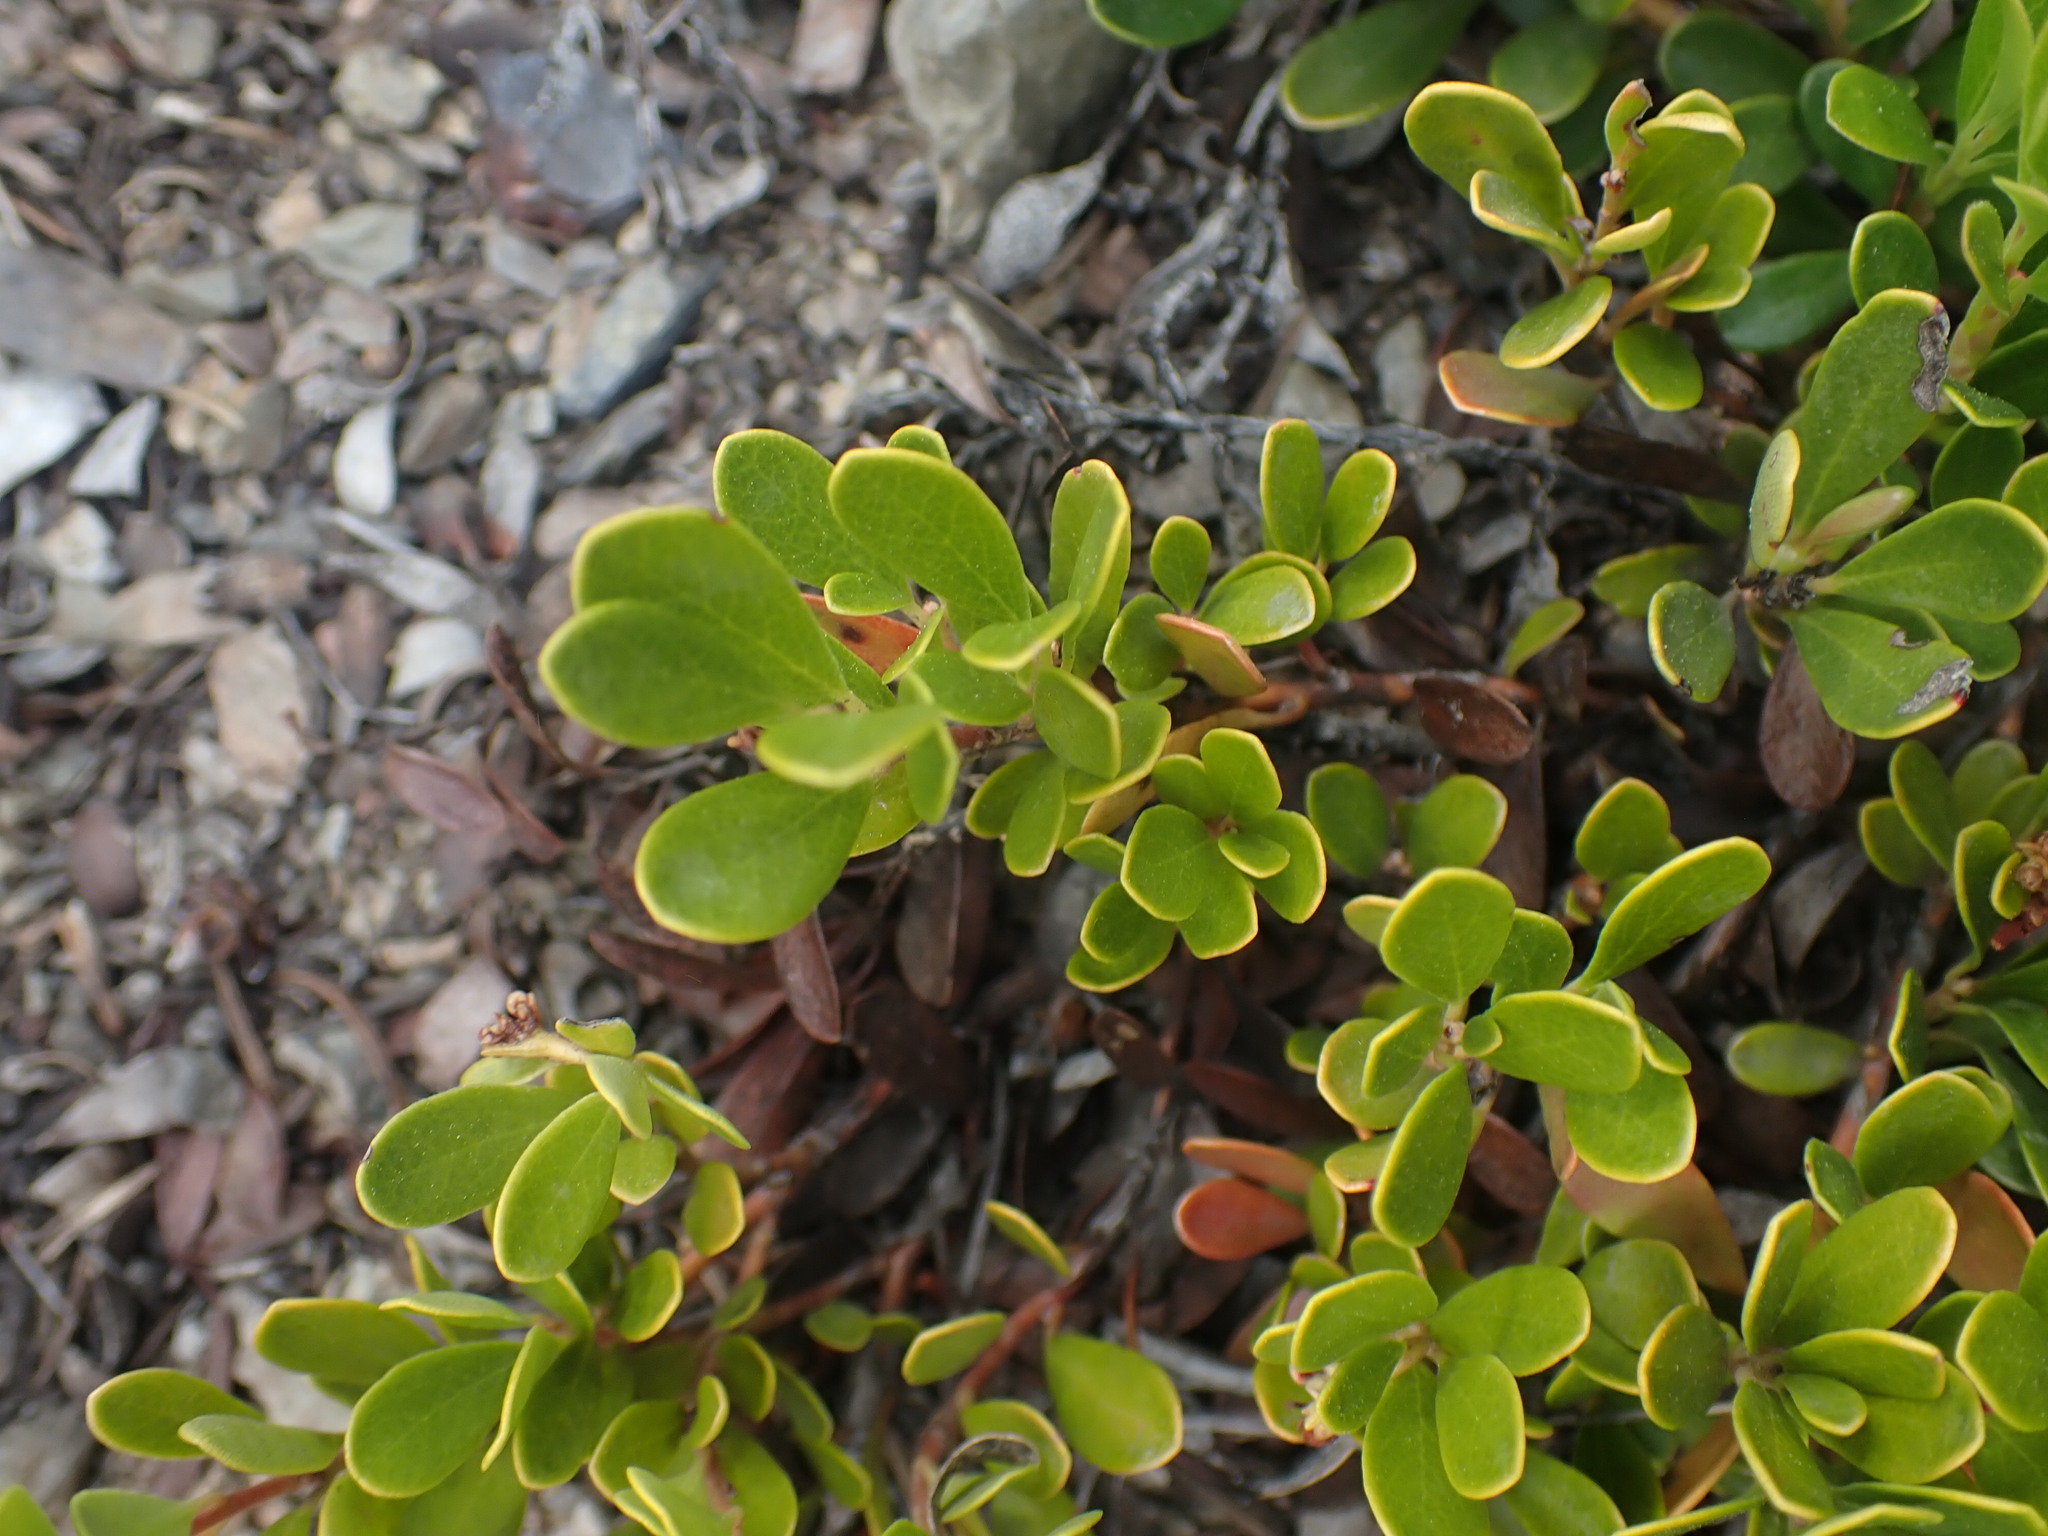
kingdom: Plantae
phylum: Tracheophyta
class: Magnoliopsida
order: Ericales
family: Ericaceae
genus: Arctostaphylos
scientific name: Arctostaphylos uva-ursi
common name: Bearberry
